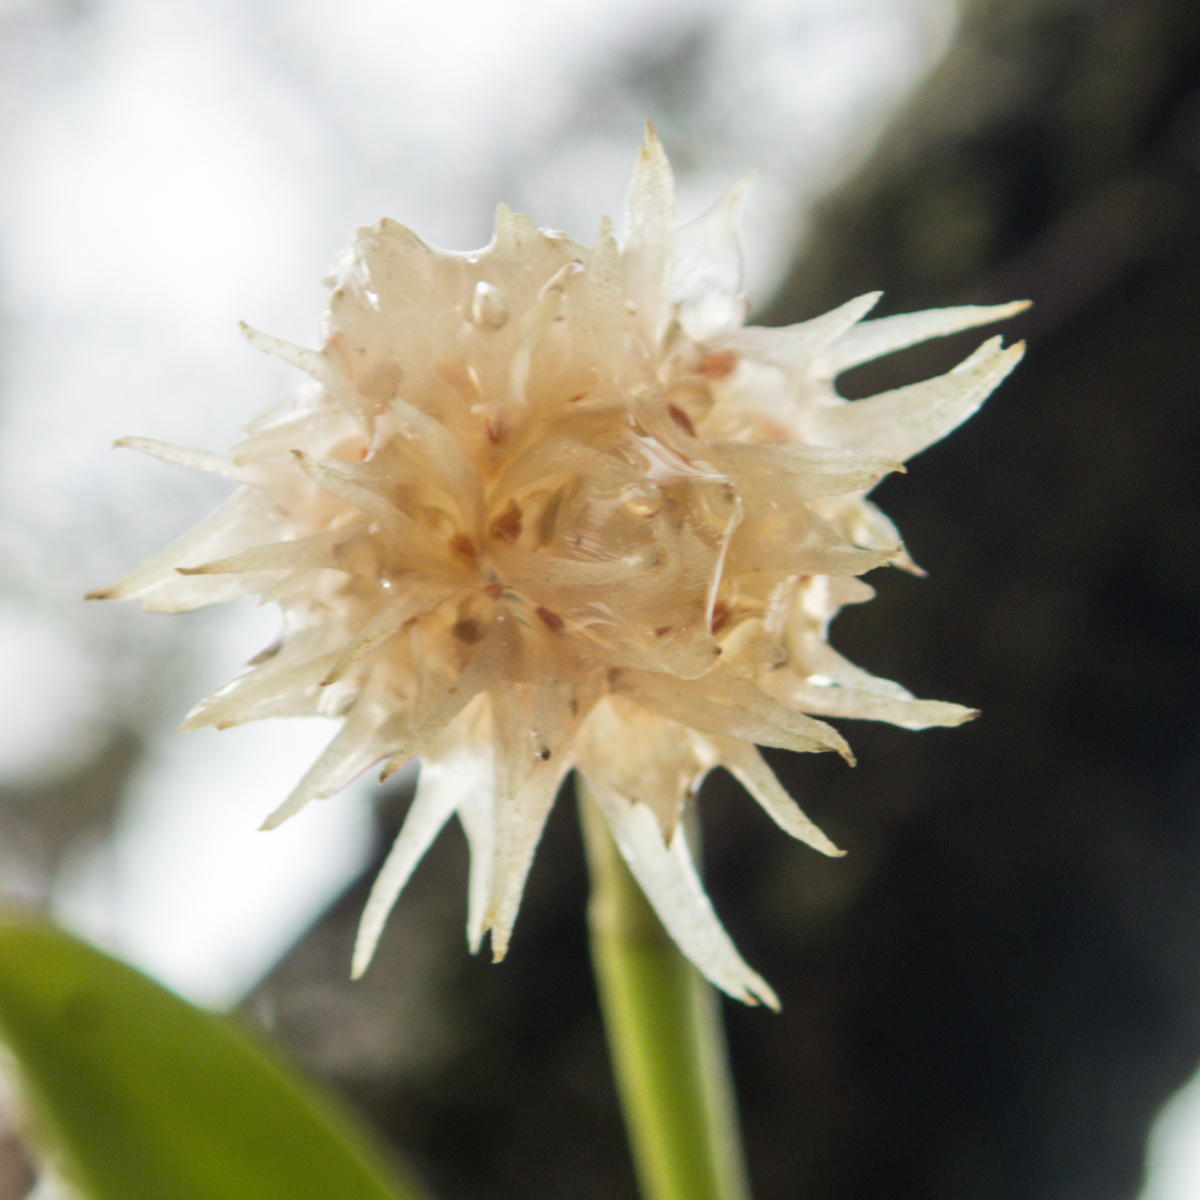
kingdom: Plantae
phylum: Tracheophyta
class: Liliopsida
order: Asparagales
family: Orchidaceae
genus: Bulbophyllum
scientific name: Bulbophyllum odoratissimum
